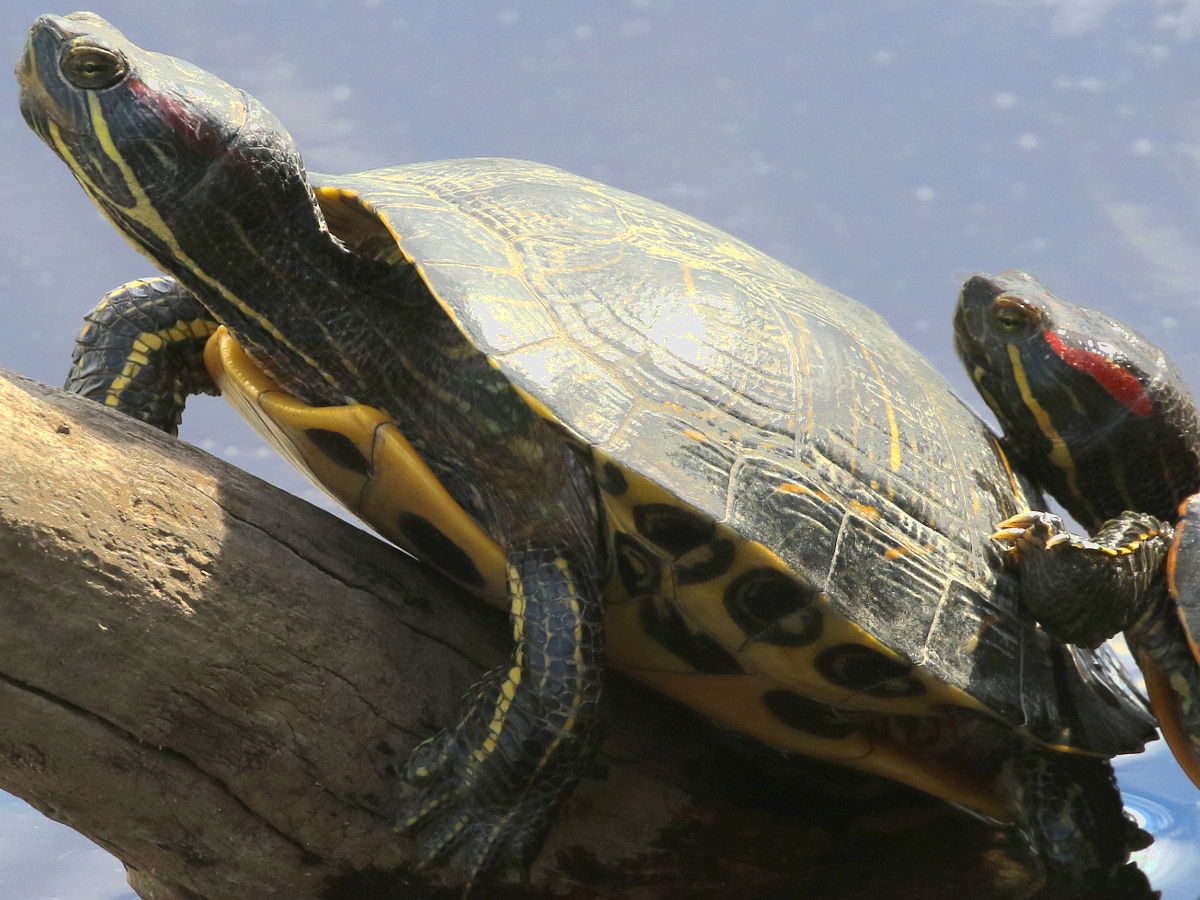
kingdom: Animalia
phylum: Chordata
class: Testudines
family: Emydidae
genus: Trachemys
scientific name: Trachemys scripta
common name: Slider
